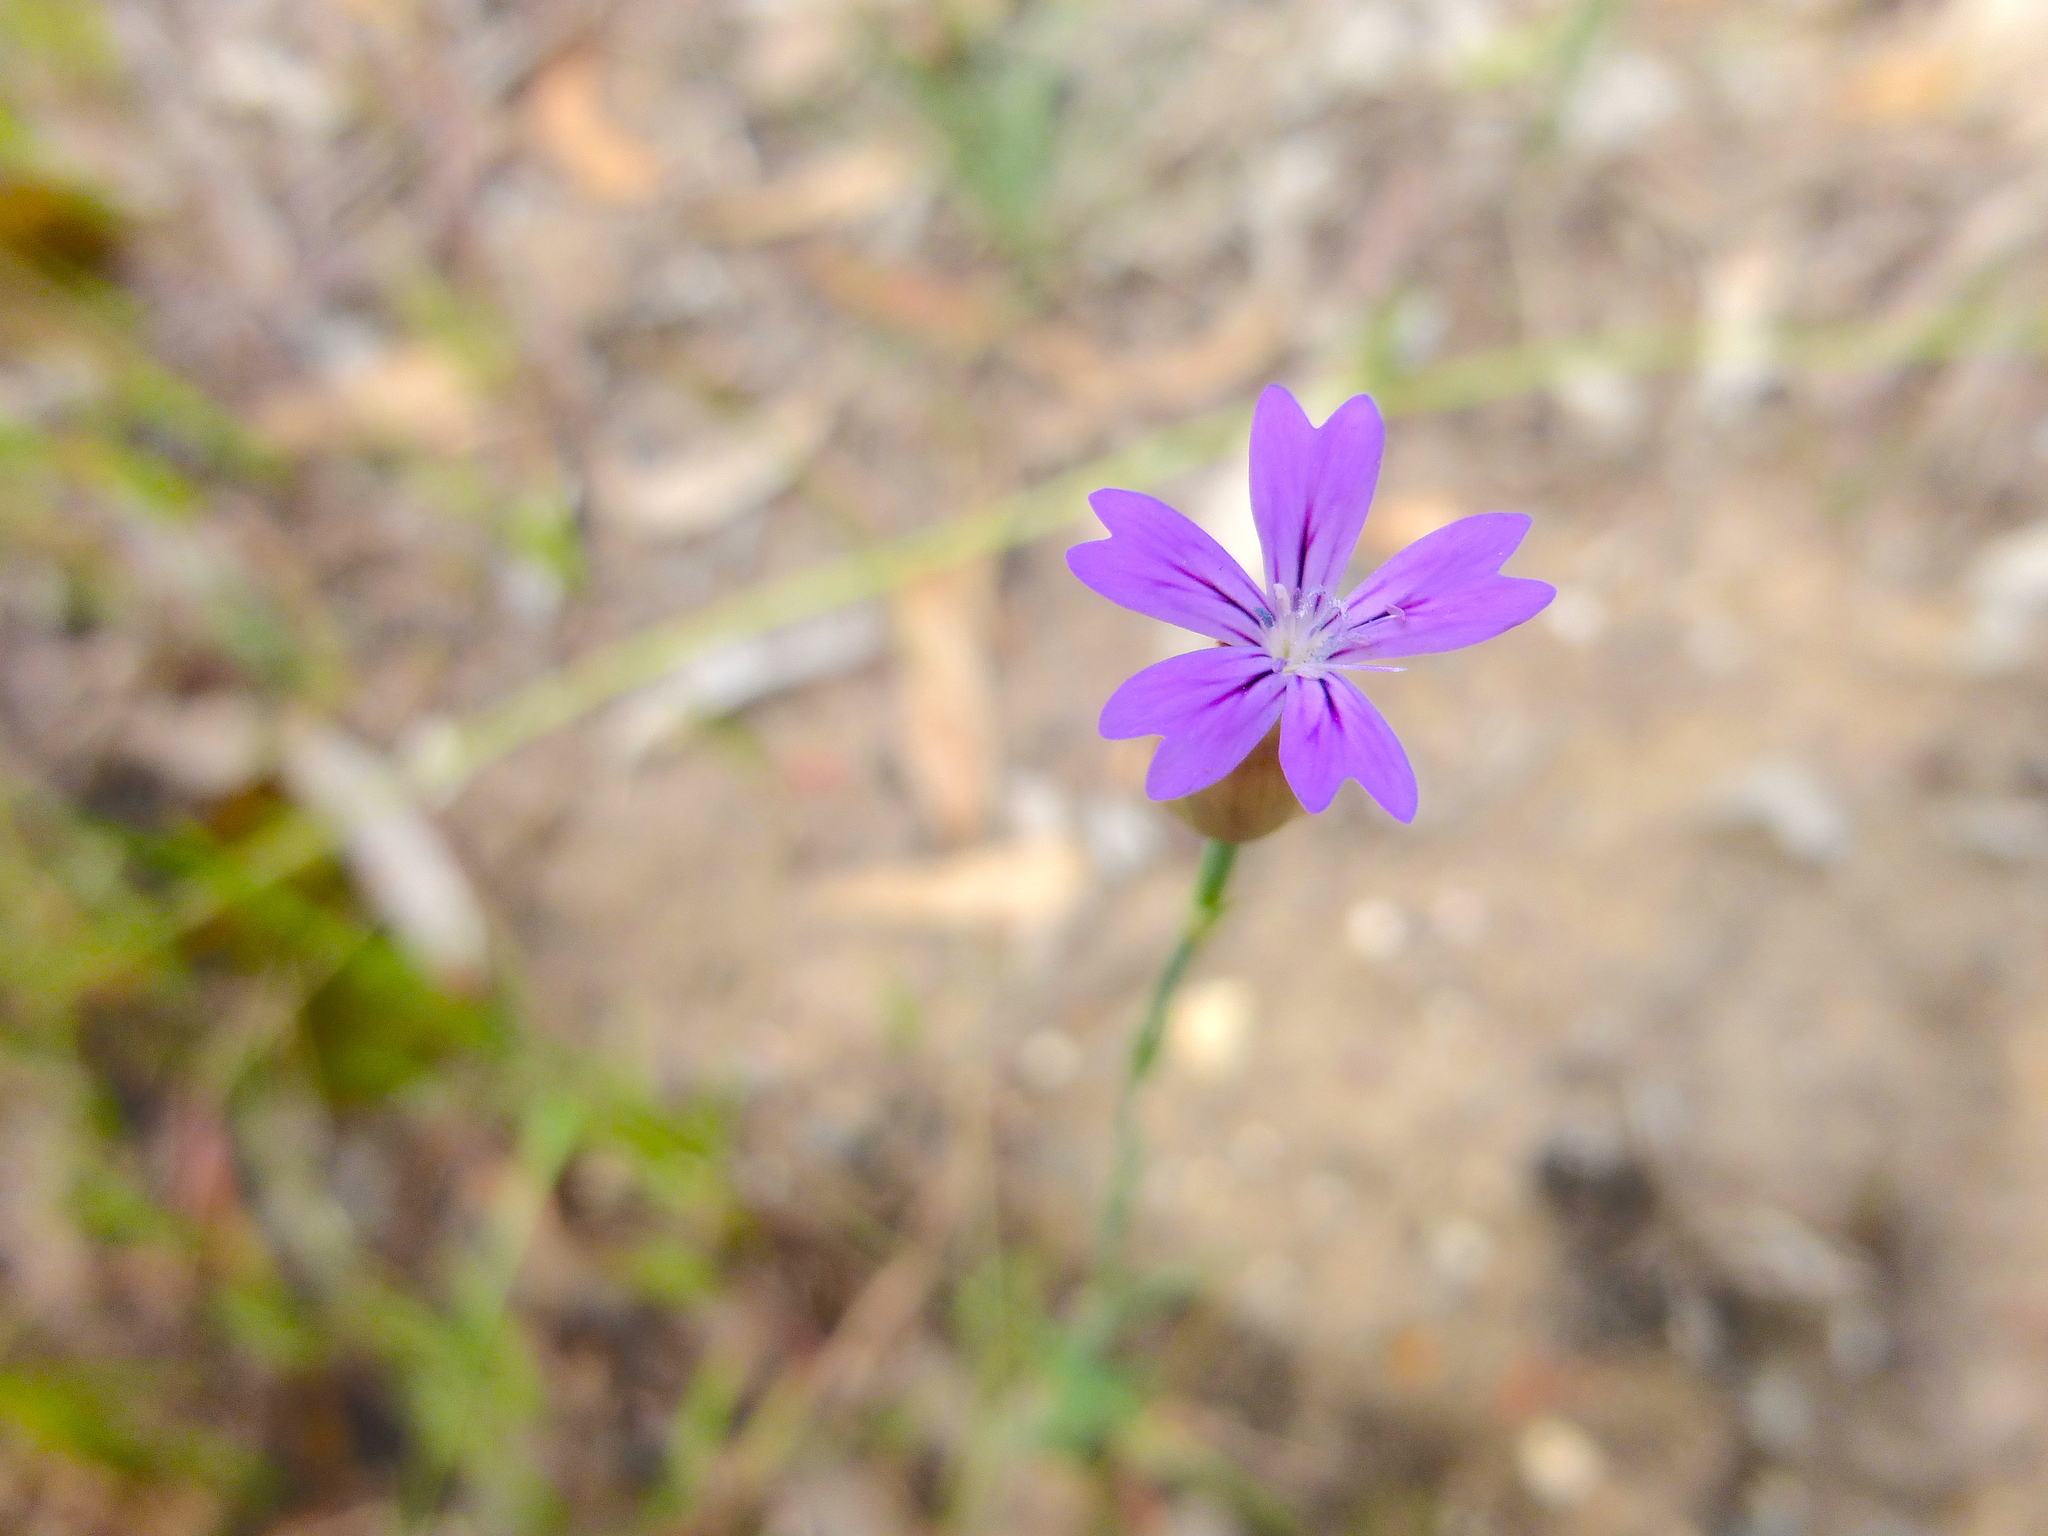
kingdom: Plantae
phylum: Tracheophyta
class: Magnoliopsida
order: Caryophyllales
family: Caryophyllaceae
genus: Petrorhagia
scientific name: Petrorhagia nanteuilii
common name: Proliferous pink
